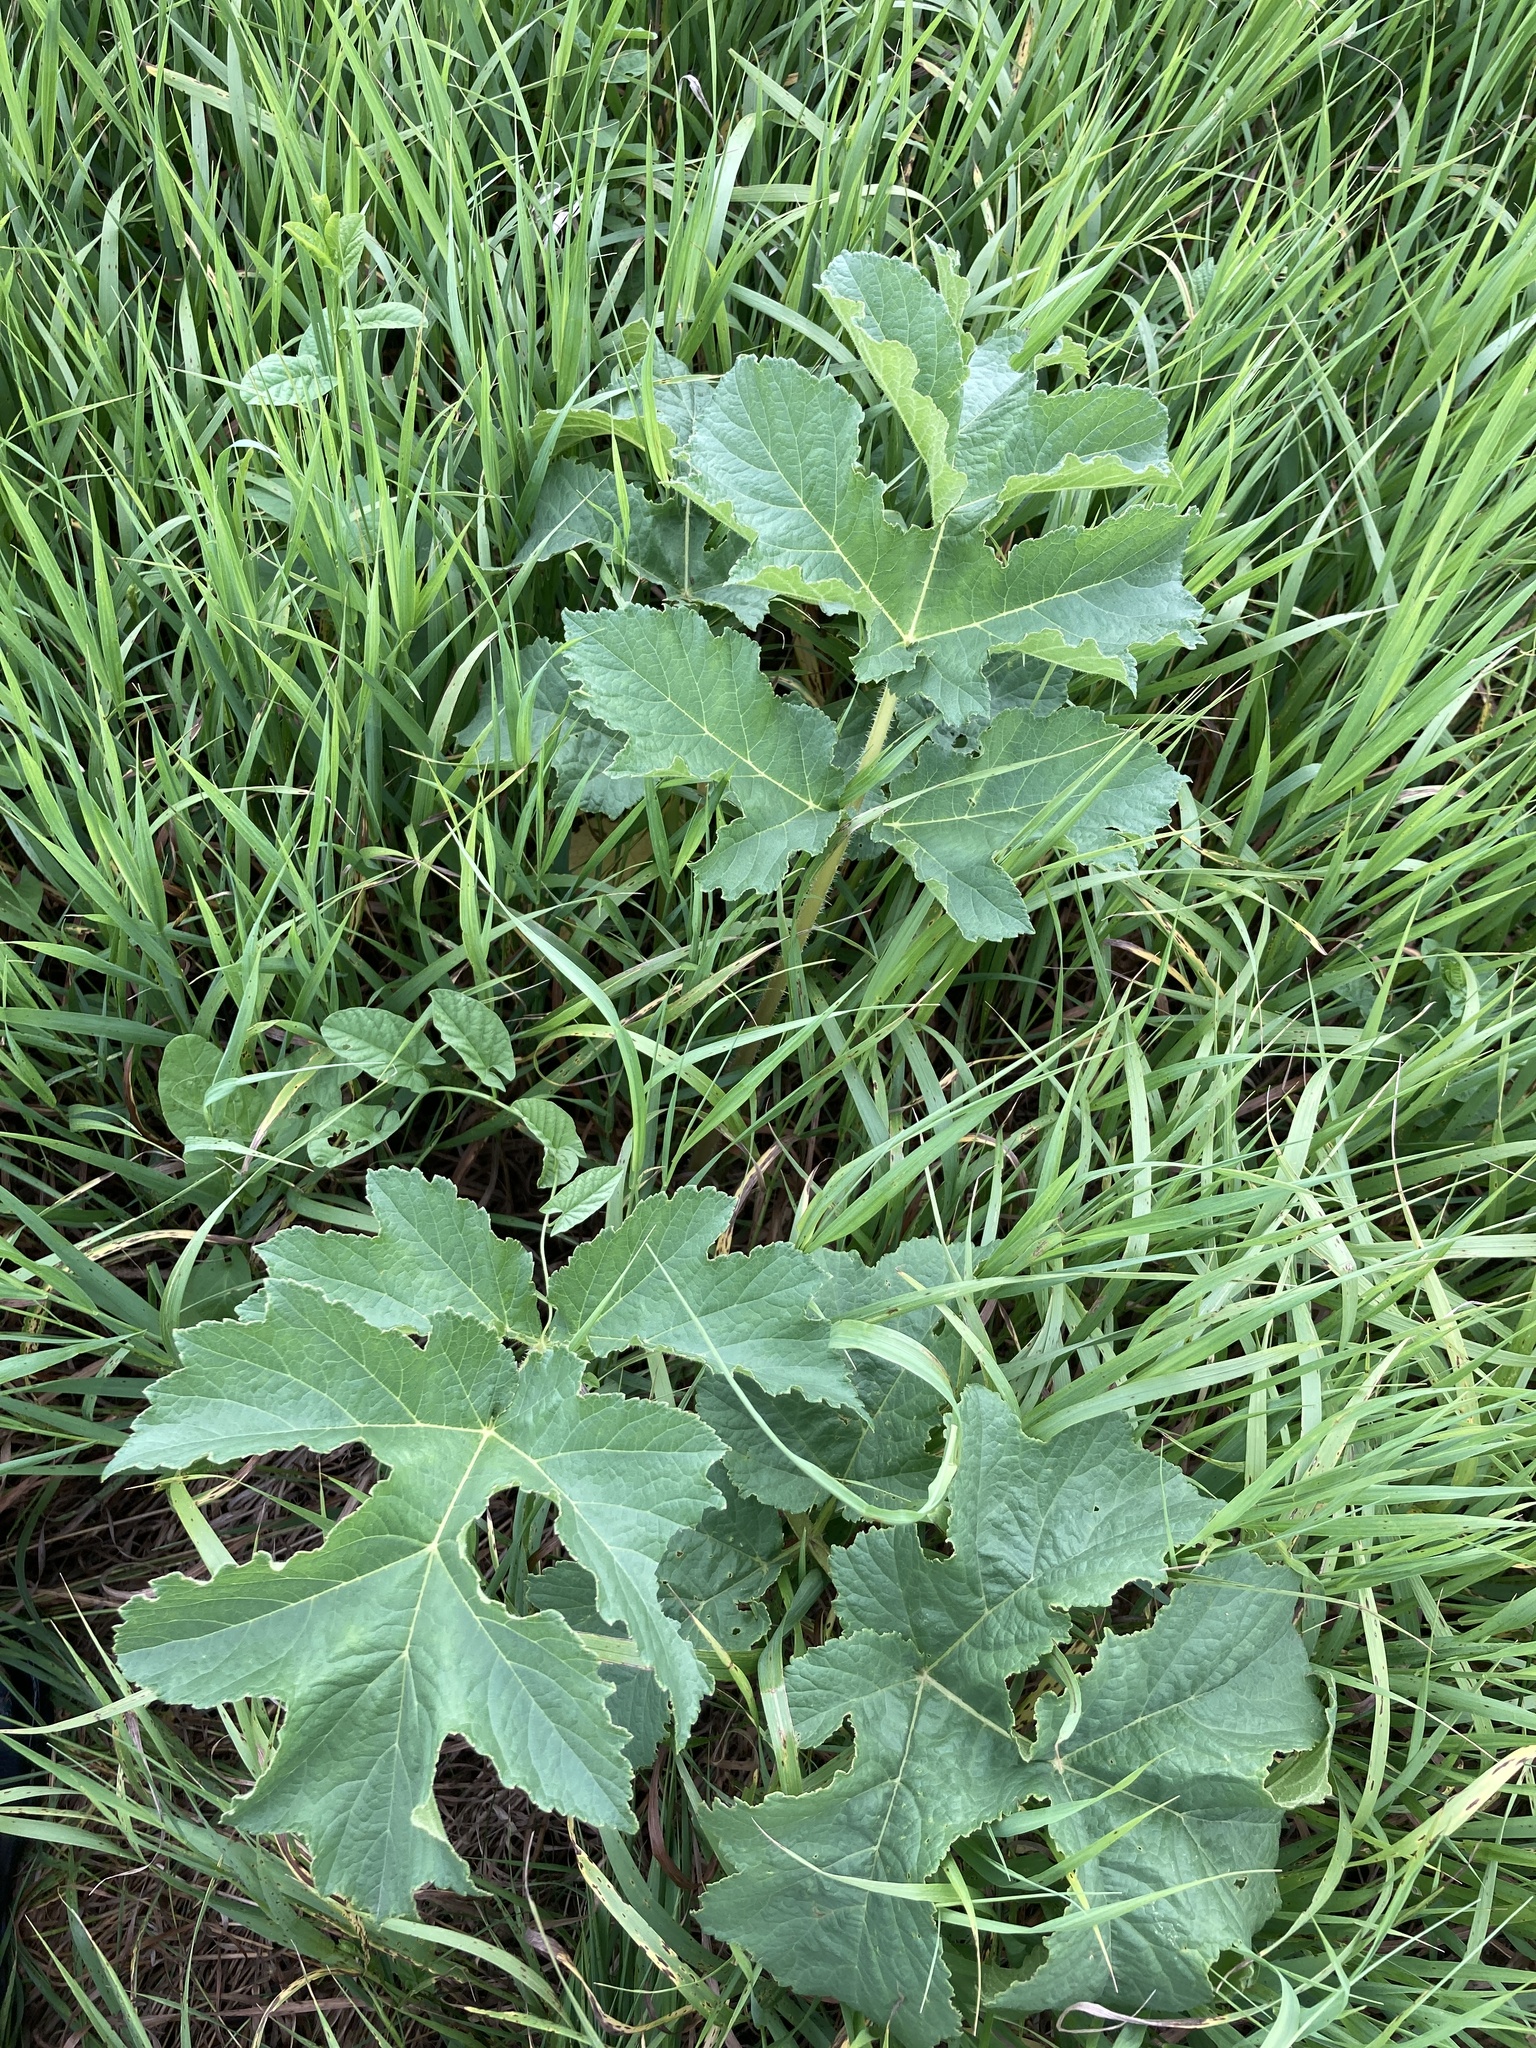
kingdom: Plantae
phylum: Tracheophyta
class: Magnoliopsida
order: Apiales
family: Apiaceae
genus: Heracleum
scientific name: Heracleum sphondylium
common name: Hogweed
